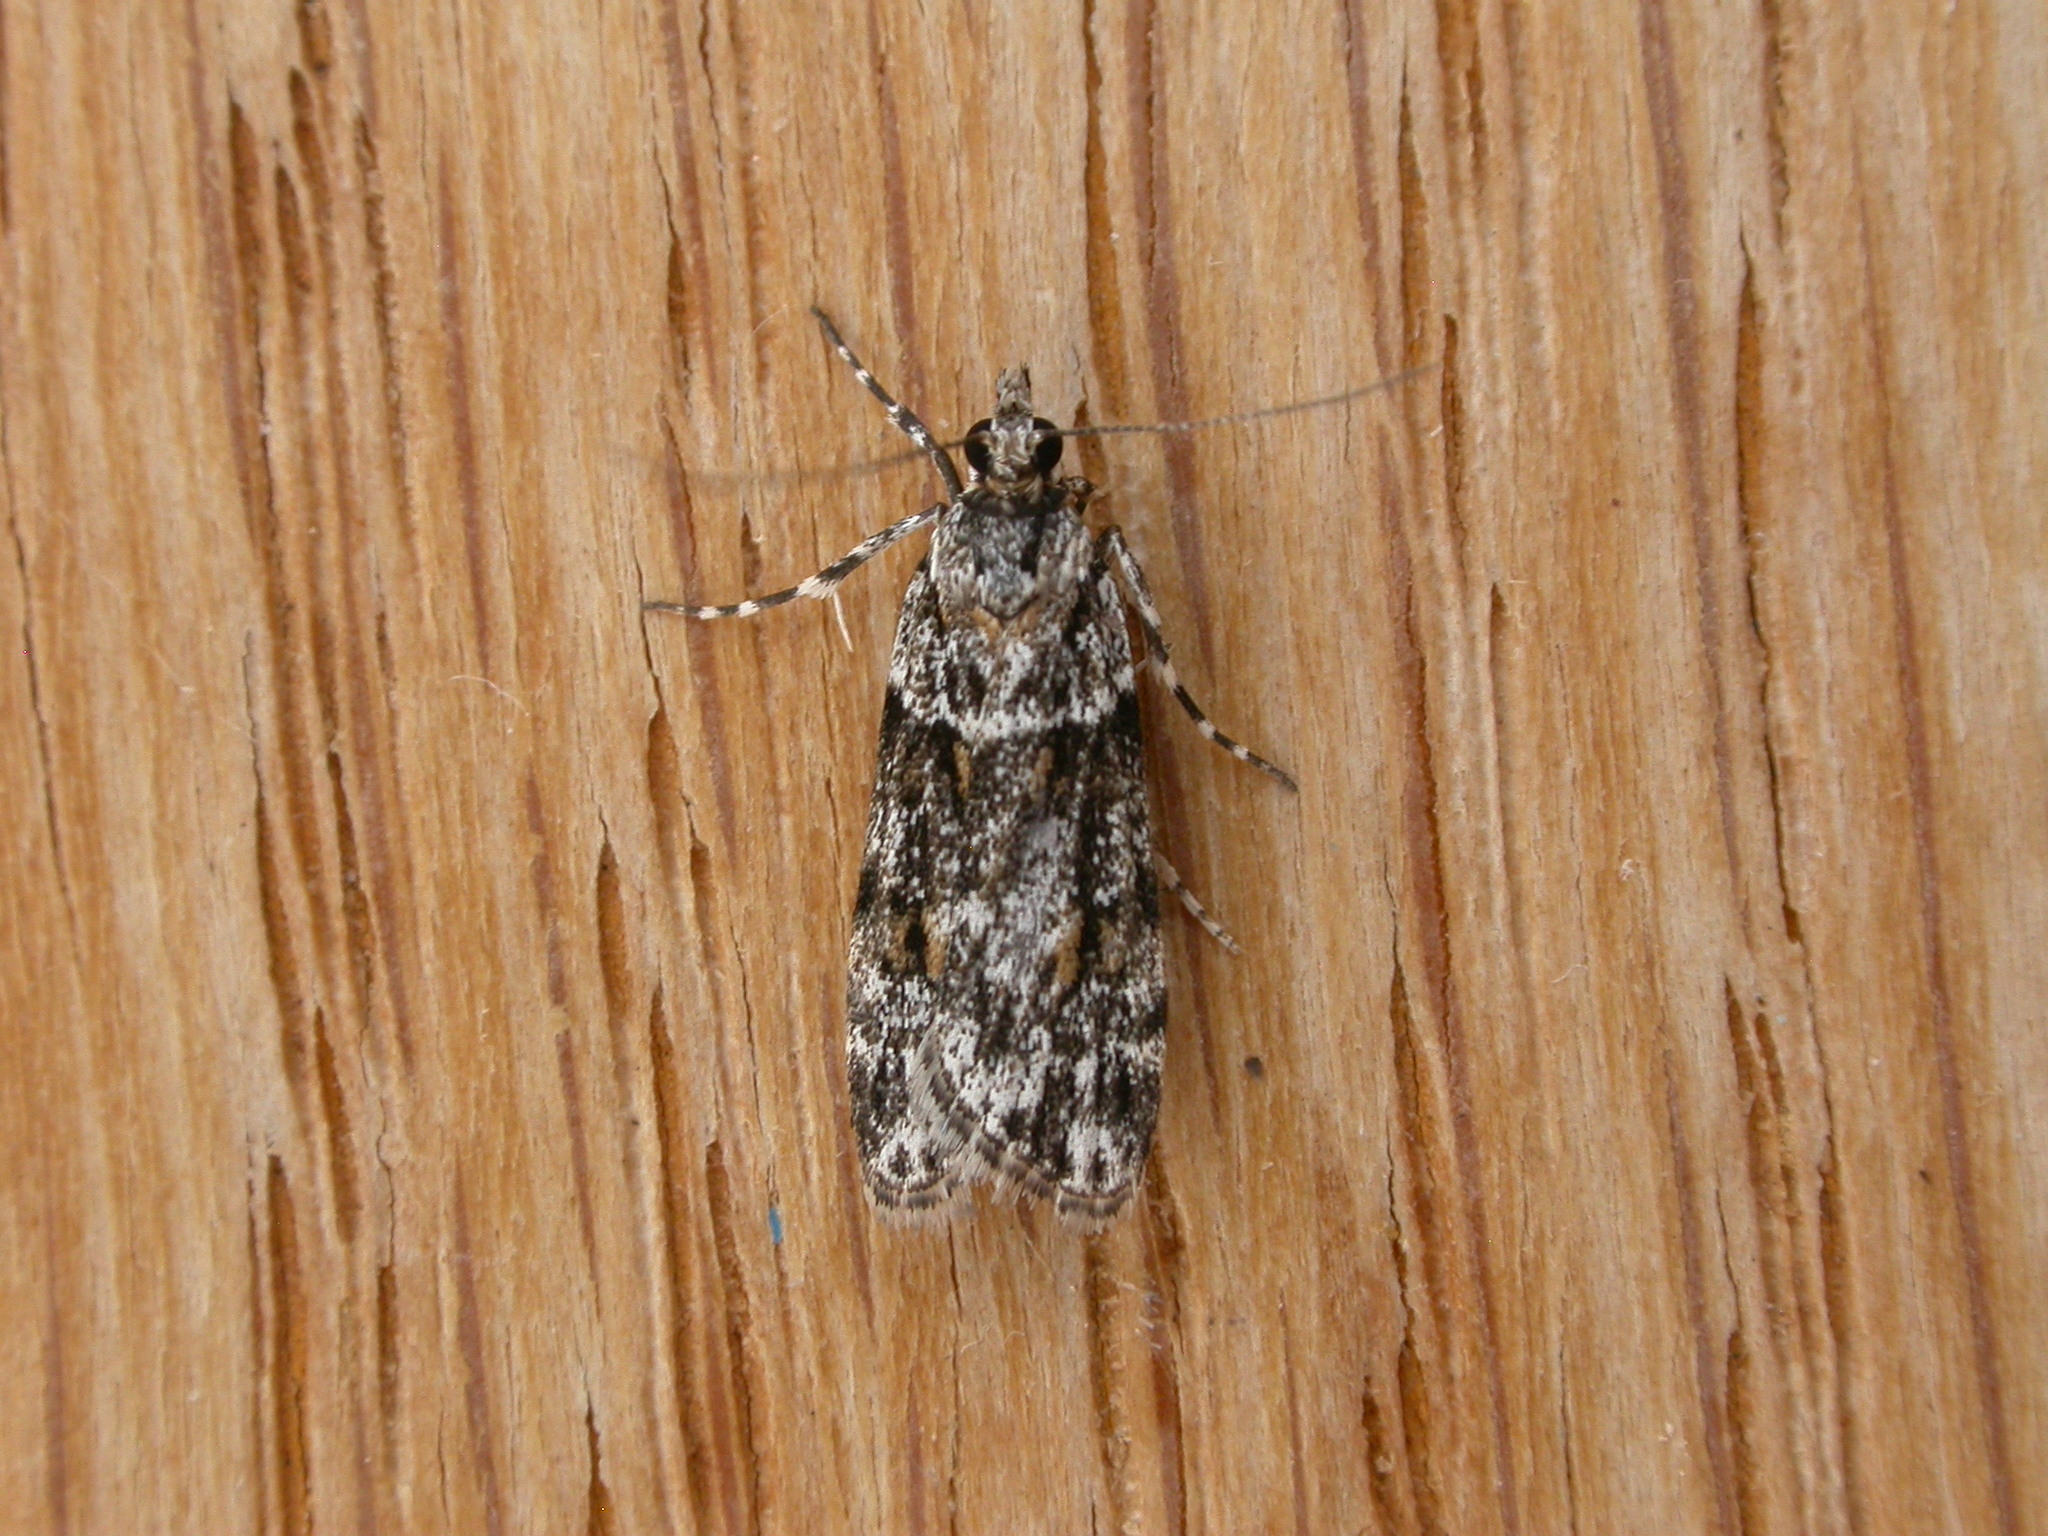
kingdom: Animalia
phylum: Arthropoda
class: Insecta
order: Lepidoptera
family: Crambidae
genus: Scoparia
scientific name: Scoparia chiasta
